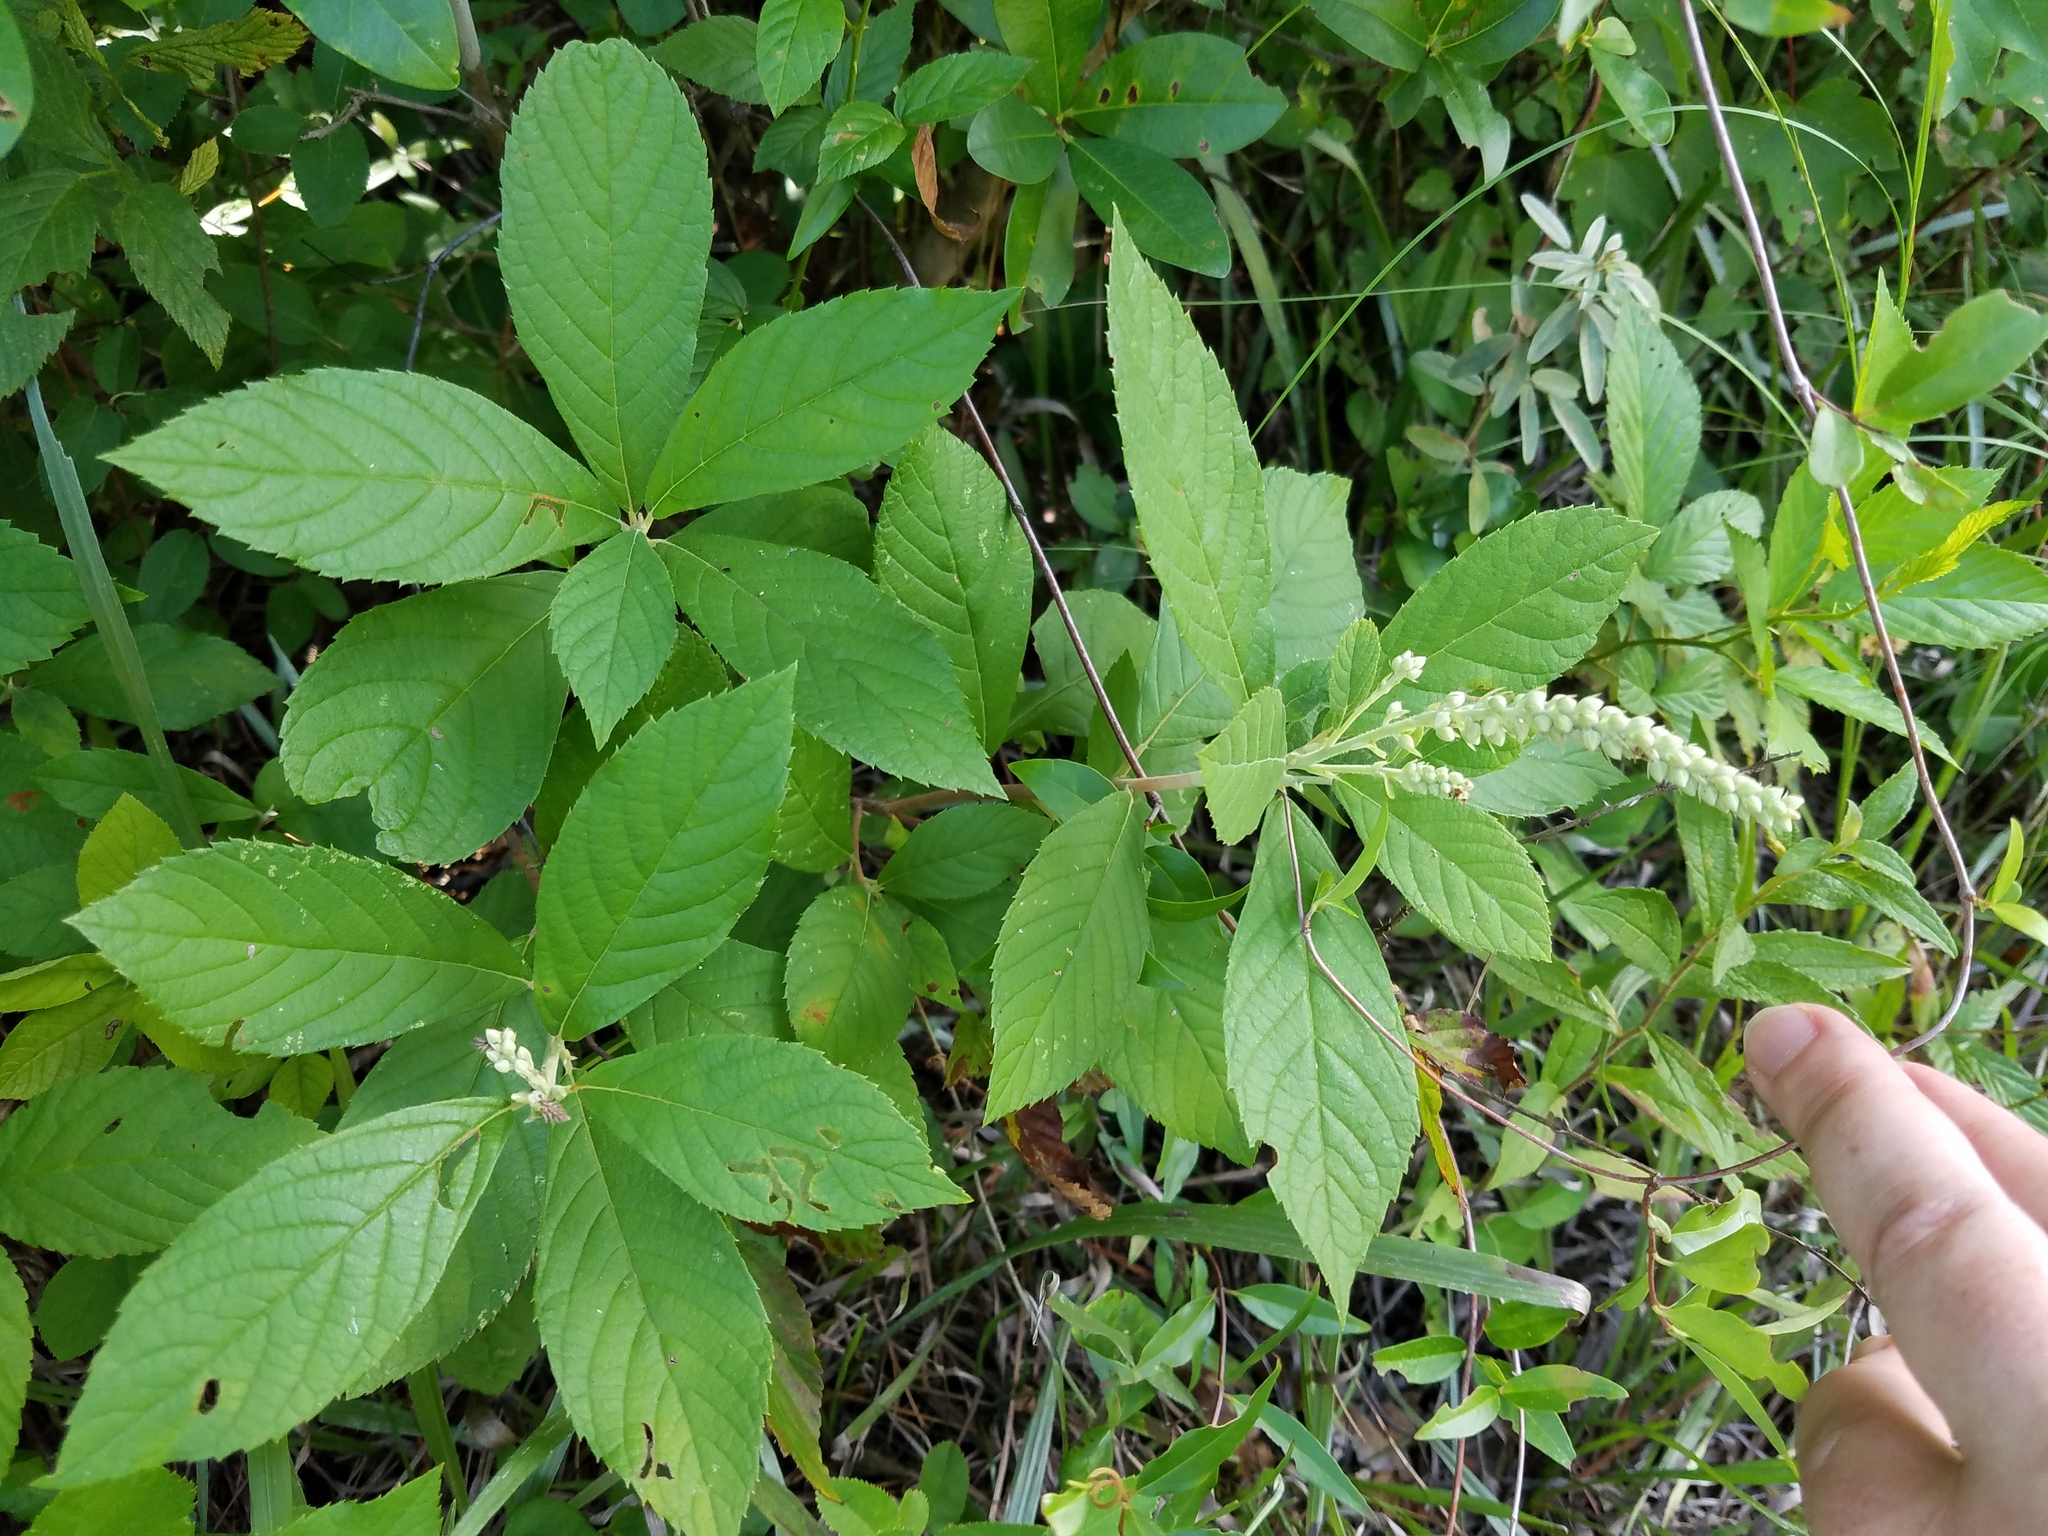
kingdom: Plantae
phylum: Tracheophyta
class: Magnoliopsida
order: Ericales
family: Clethraceae
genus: Clethra
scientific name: Clethra alnifolia
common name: Sweet pepperbush
